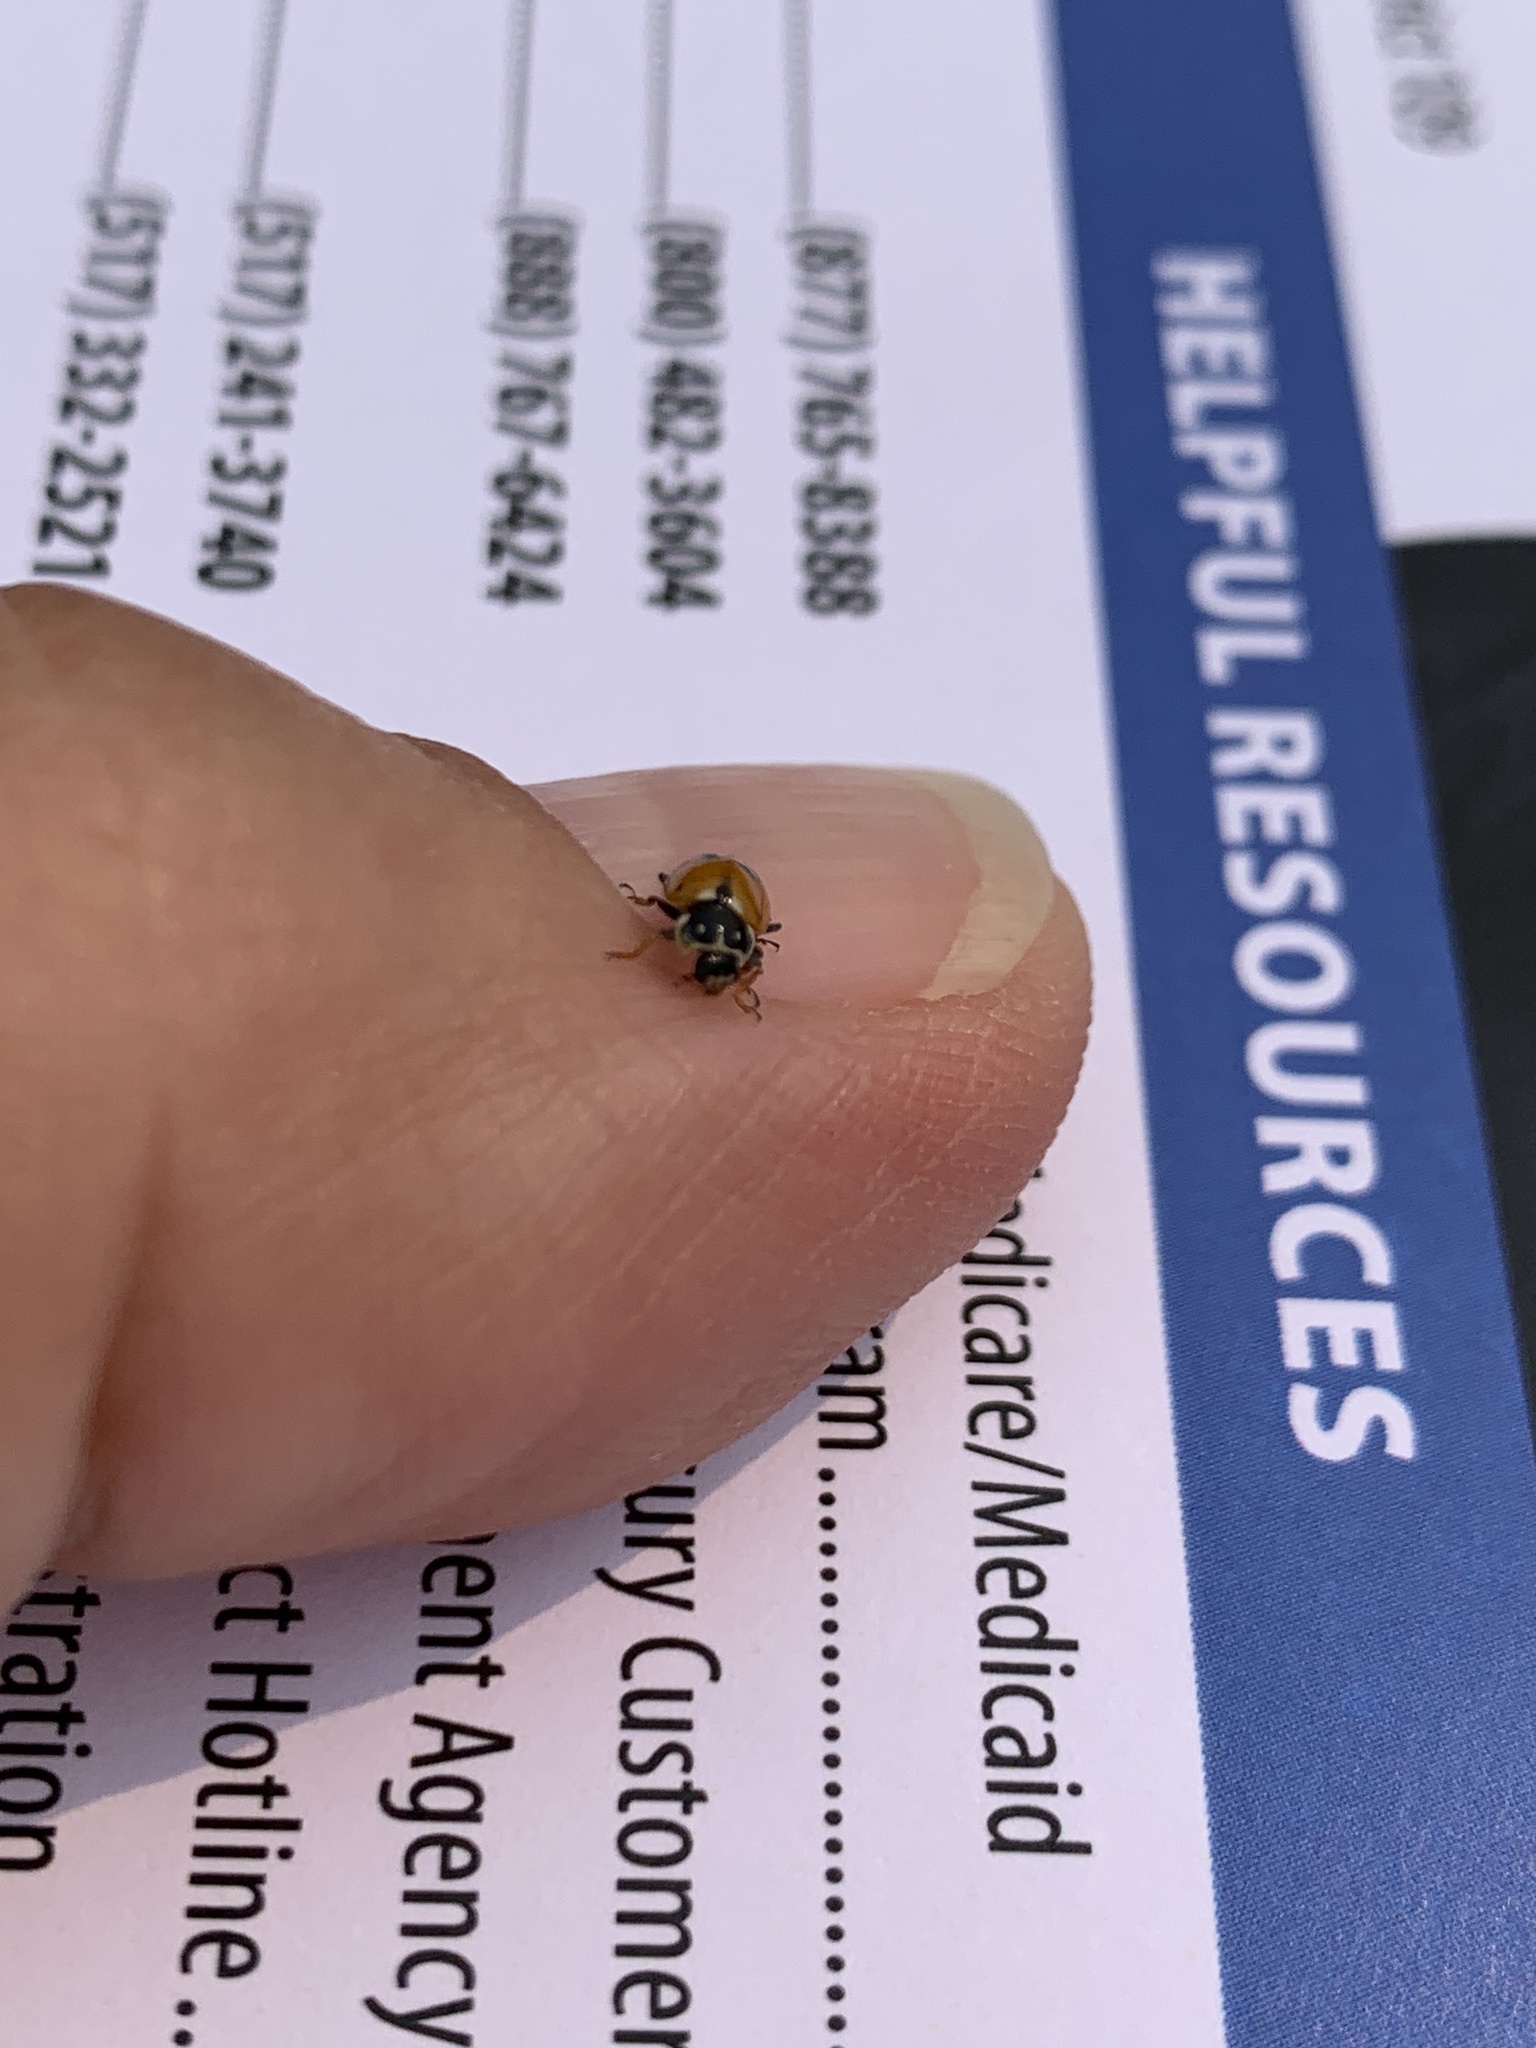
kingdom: Animalia
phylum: Arthropoda
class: Insecta
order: Coleoptera
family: Coccinellidae
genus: Hippodamia
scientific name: Hippodamia variegata
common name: Ladybird beetle
